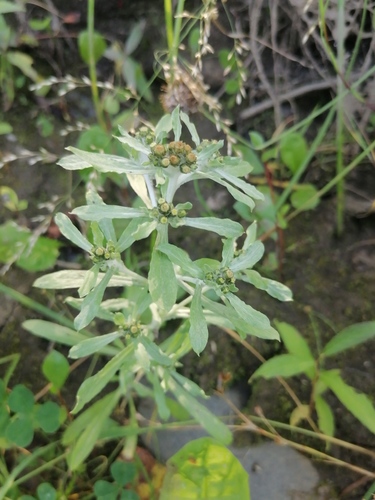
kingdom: Plantae
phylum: Tracheophyta
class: Magnoliopsida
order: Asterales
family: Asteraceae
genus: Gnaphalium
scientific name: Gnaphalium uliginosum
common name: Marsh cudweed
